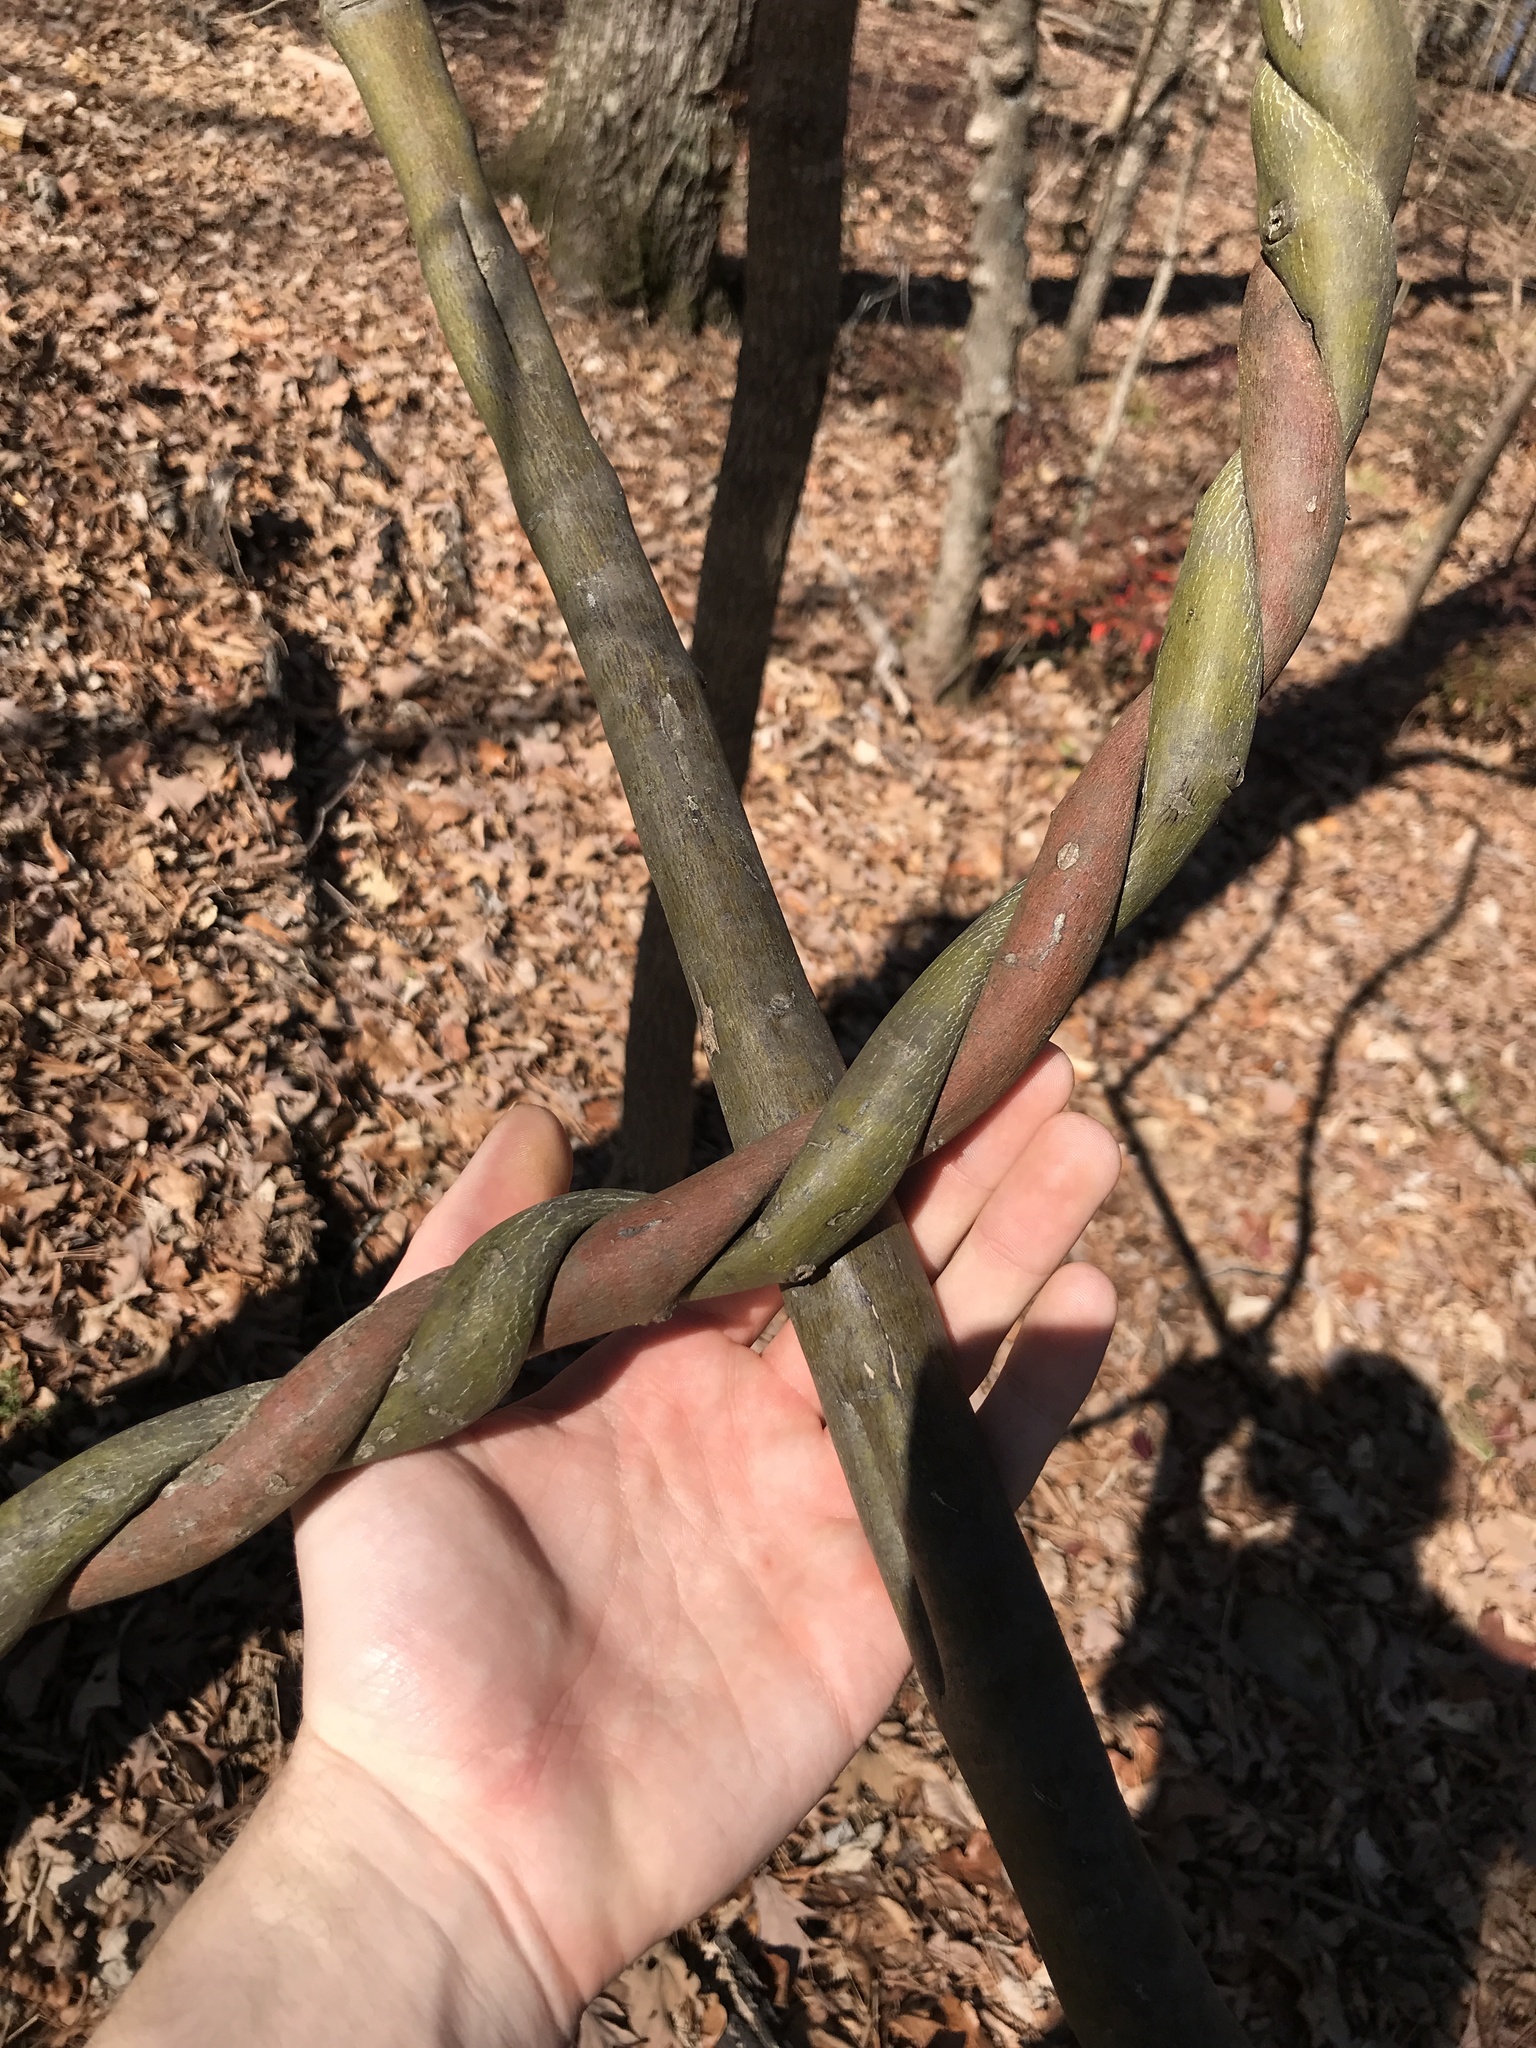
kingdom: Plantae
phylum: Tracheophyta
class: Magnoliopsida
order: Rosales
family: Rhamnaceae
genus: Berchemia
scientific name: Berchemia scandens
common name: Supplejack
